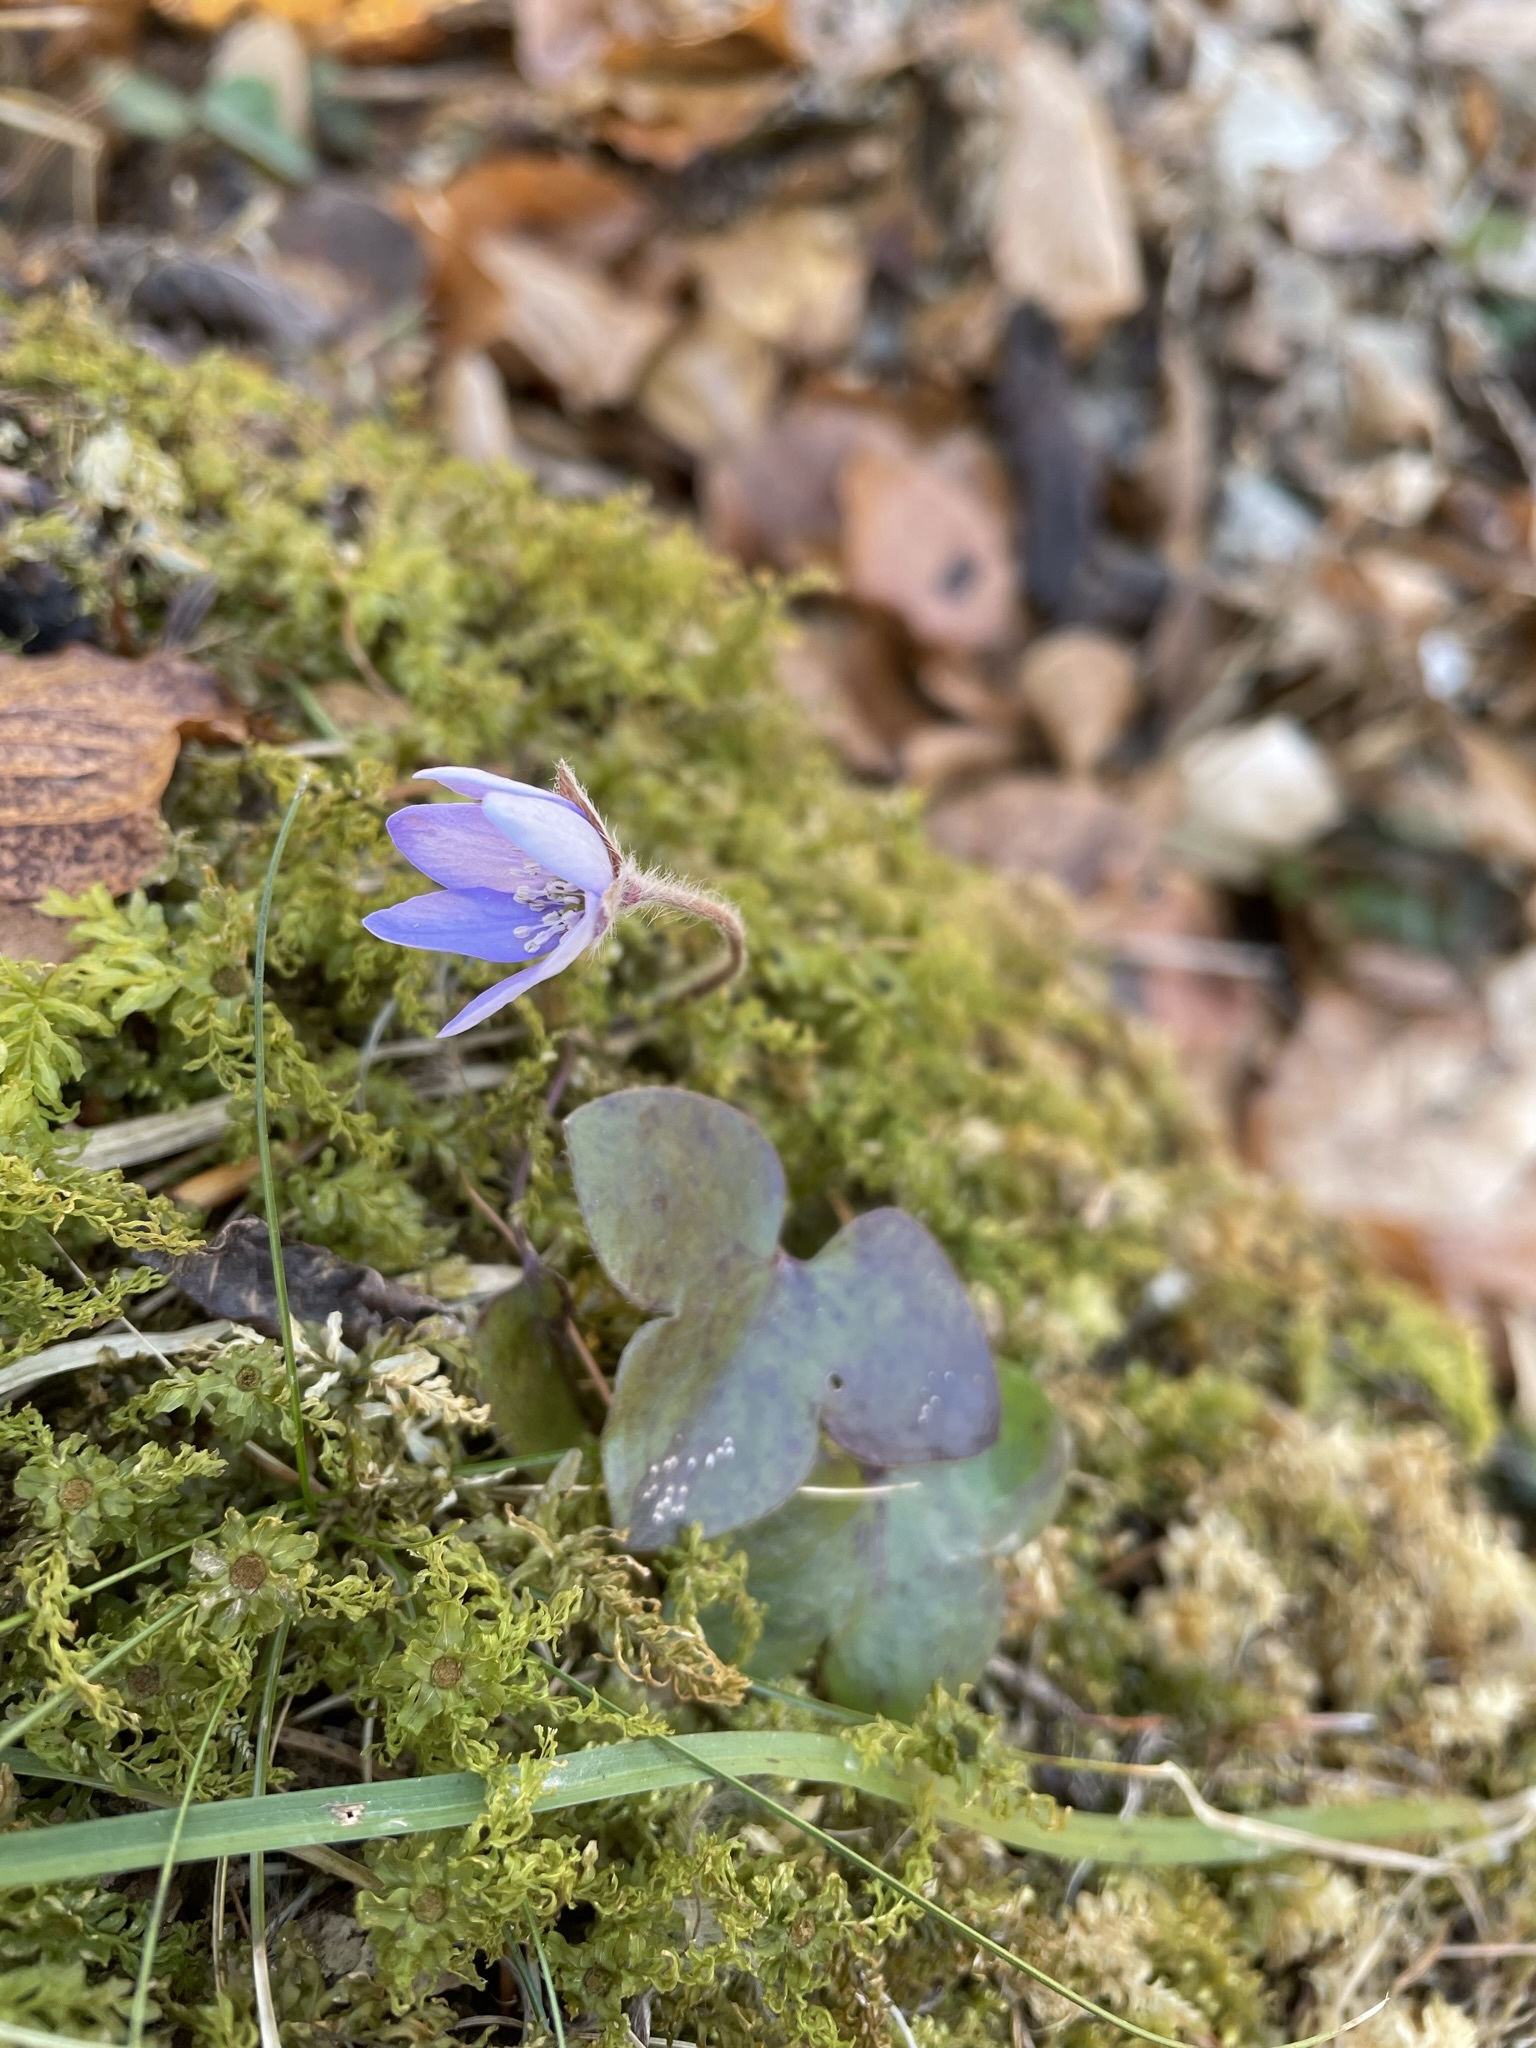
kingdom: Plantae
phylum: Tracheophyta
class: Magnoliopsida
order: Ranunculales
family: Ranunculaceae
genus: Hepatica
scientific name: Hepatica nobilis
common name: Liverleaf
